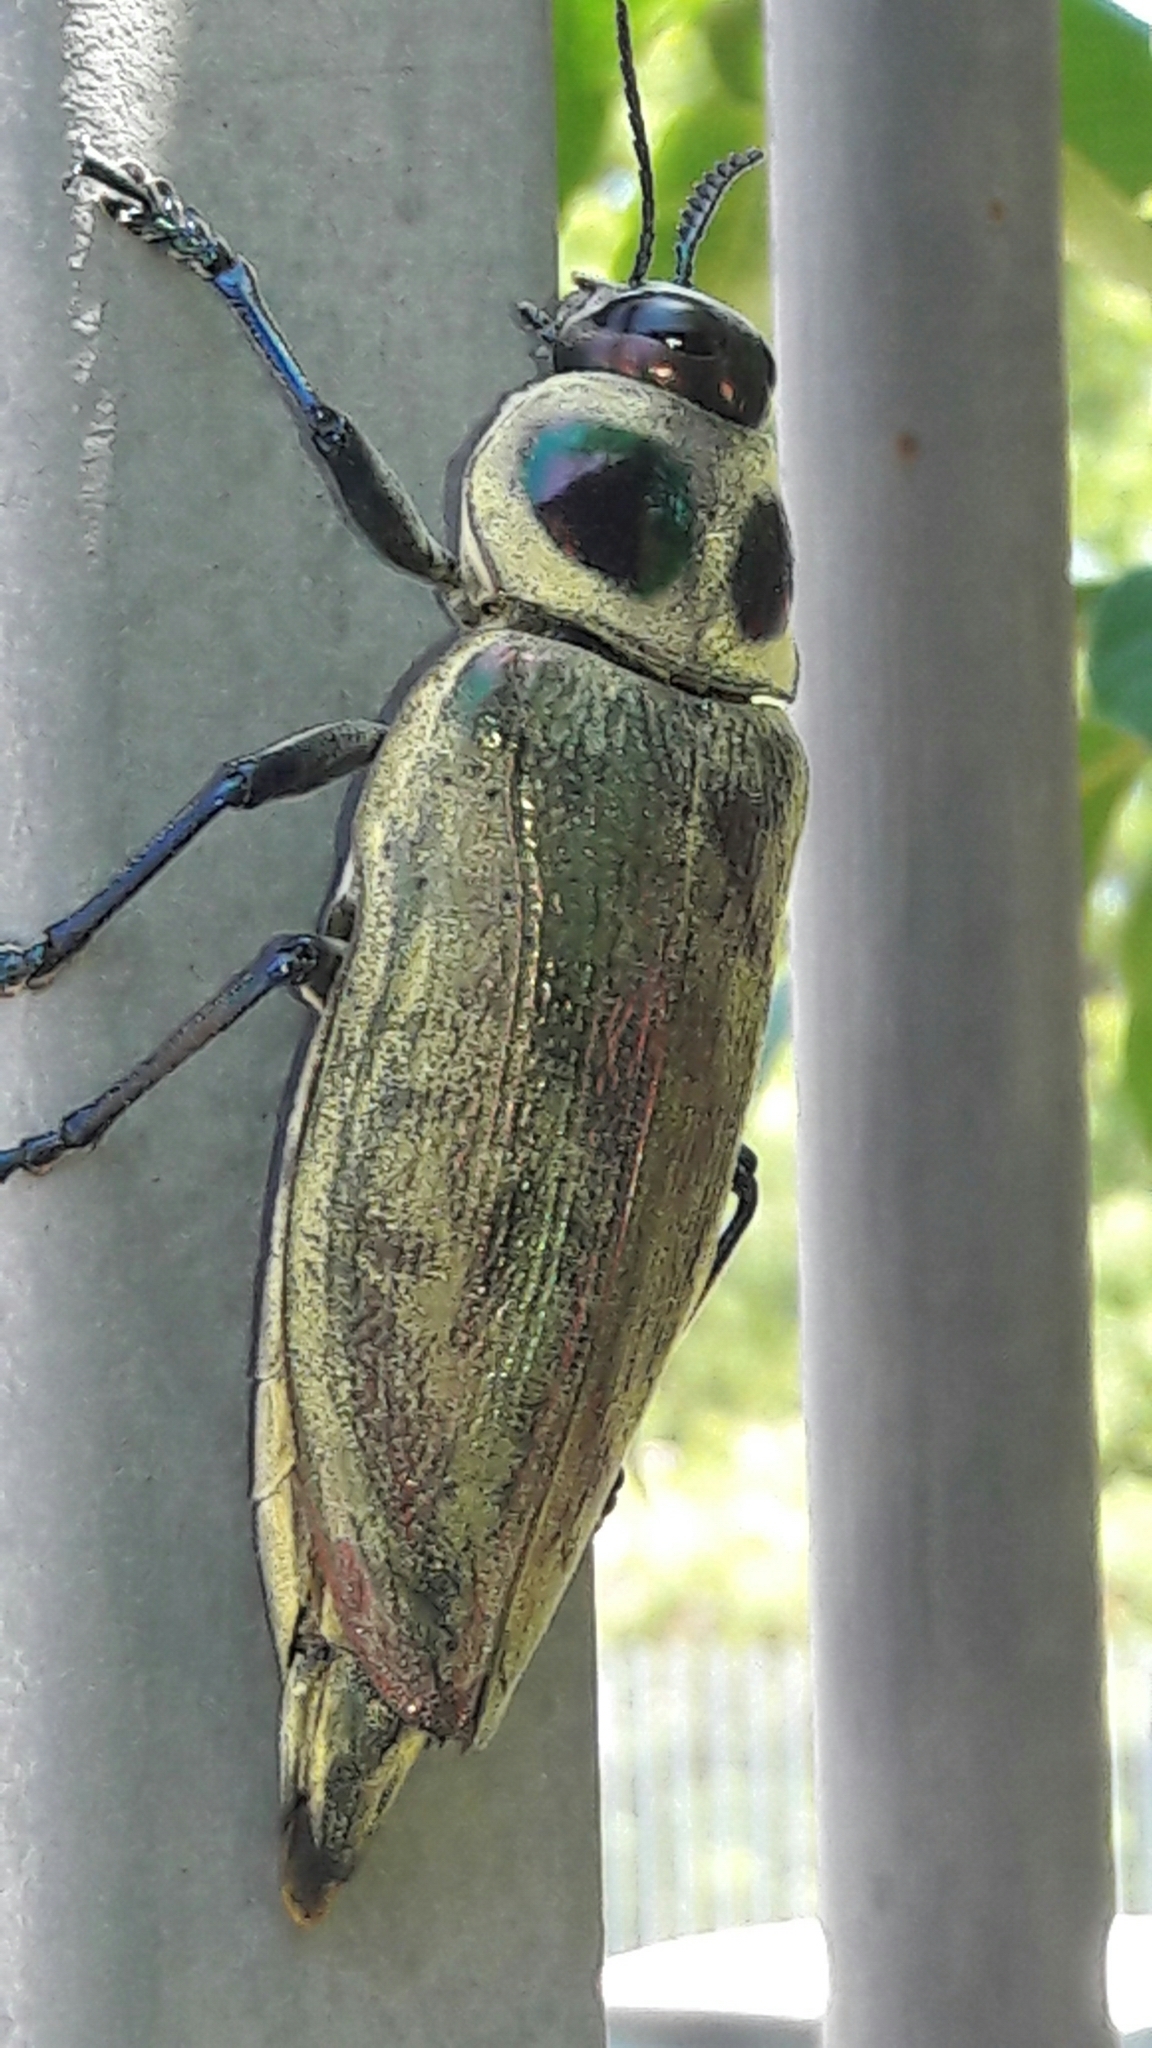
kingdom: Animalia
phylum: Arthropoda
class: Insecta
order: Coleoptera
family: Buprestidae
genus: Euchroma
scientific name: Euchroma giganteum
